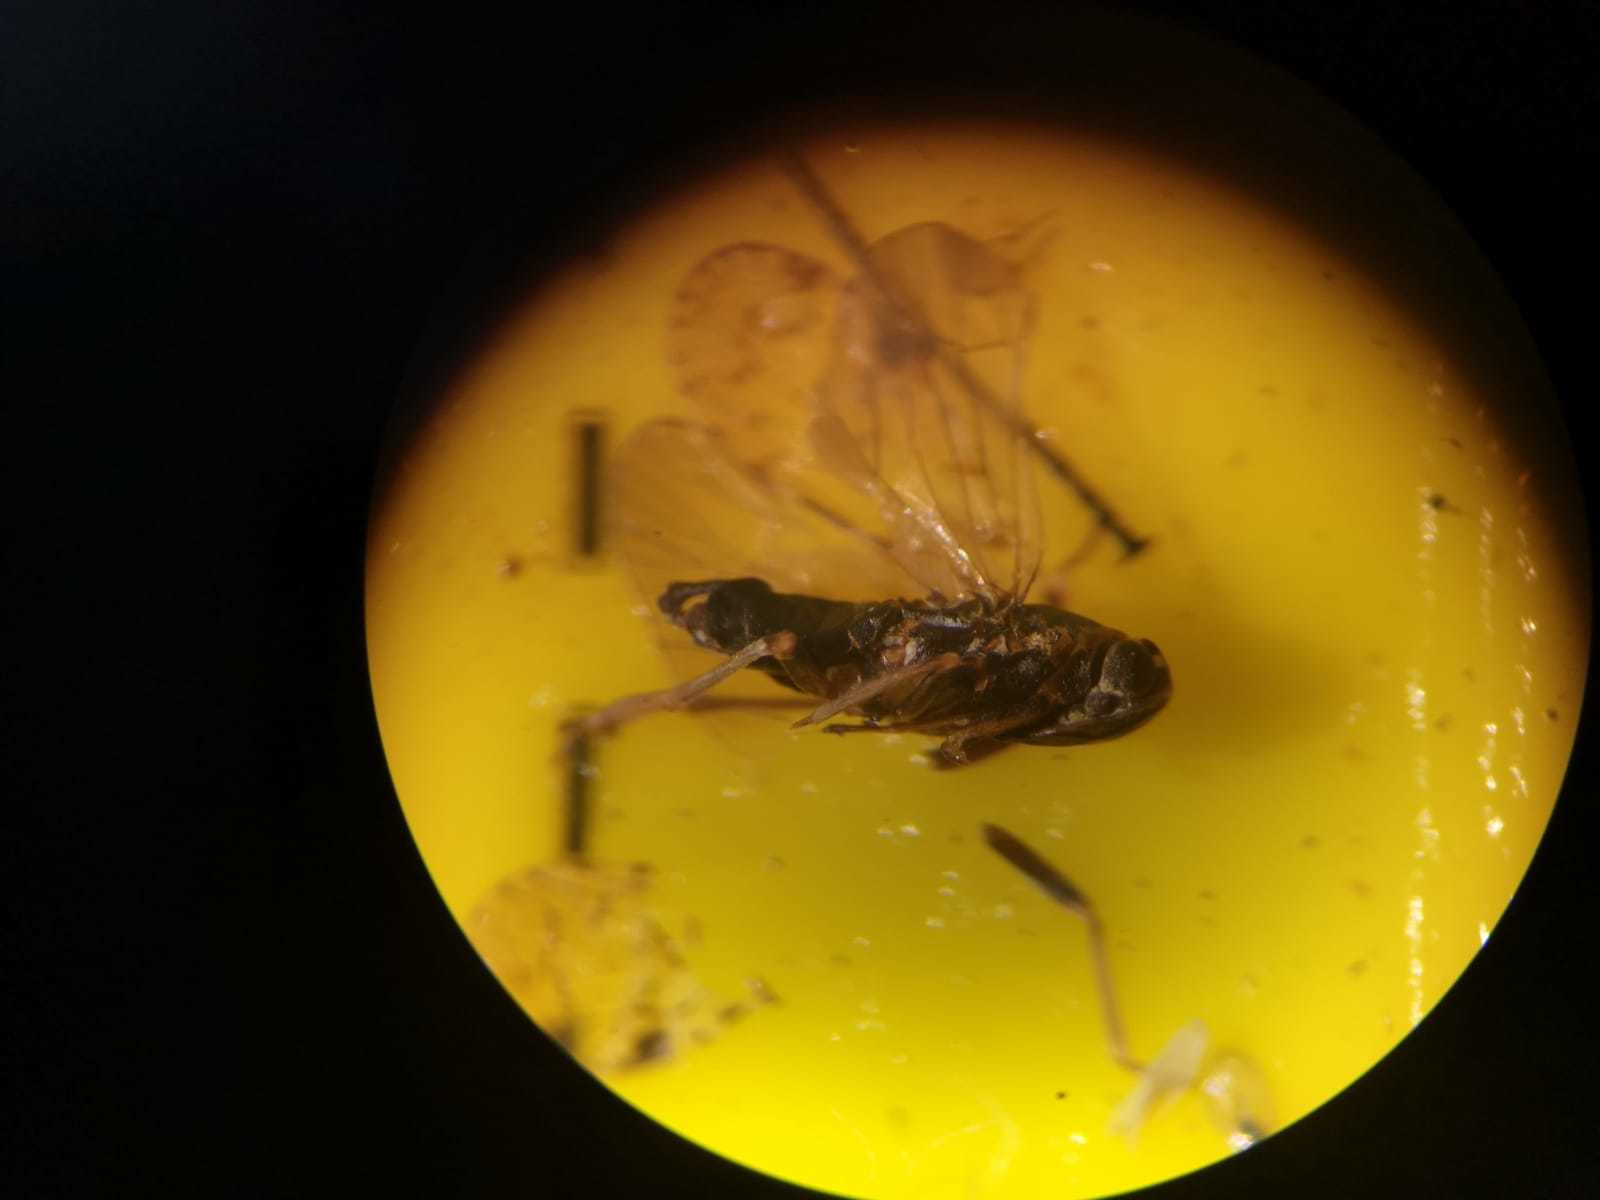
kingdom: Animalia
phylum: Arthropoda
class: Insecta
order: Hemiptera
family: Cixiidae
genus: Cixius
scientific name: Cixius nervosus
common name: Common lacehopper
